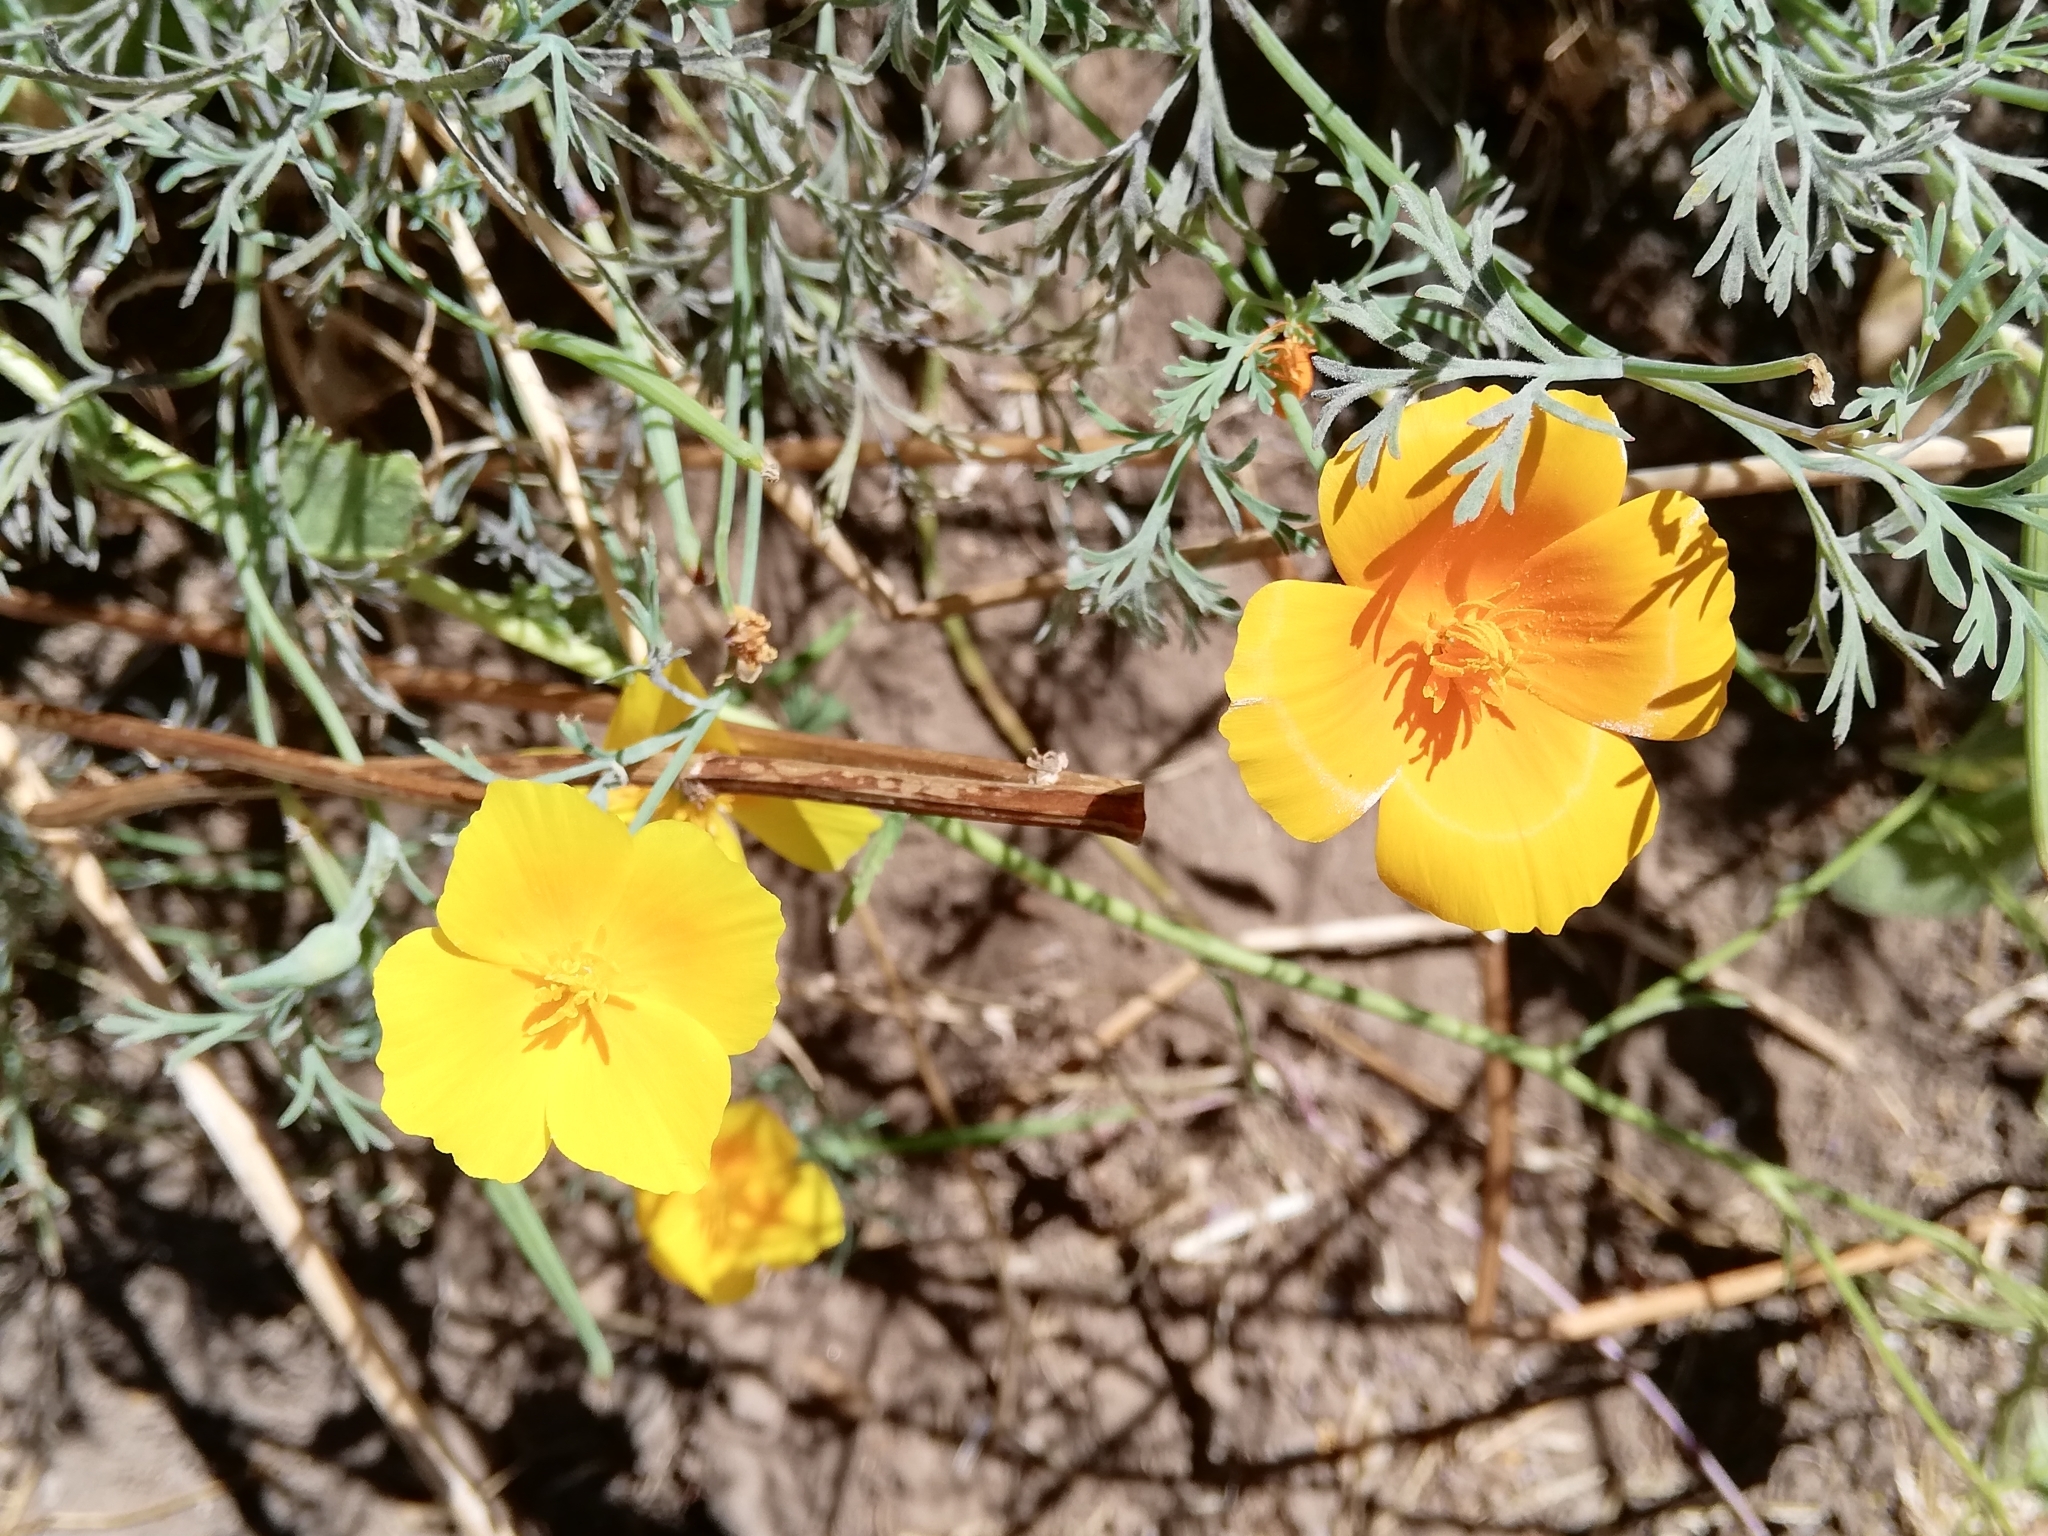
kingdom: Plantae
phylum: Tracheophyta
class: Magnoliopsida
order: Ranunculales
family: Papaveraceae
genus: Eschscholzia
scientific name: Eschscholzia californica
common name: California poppy
